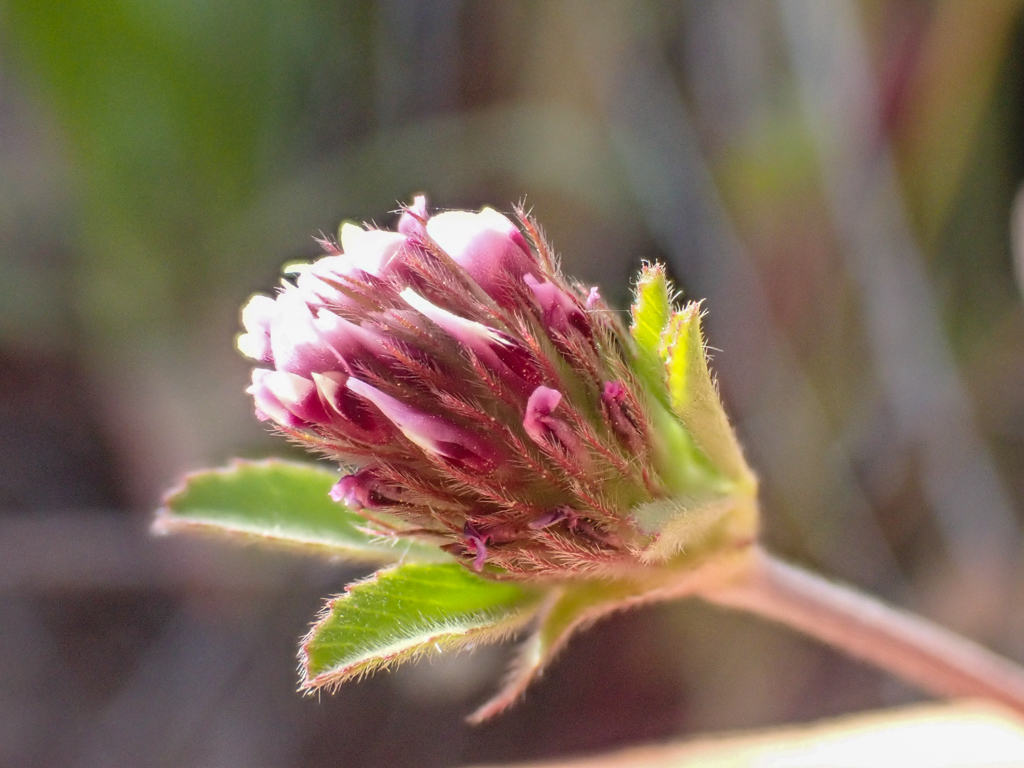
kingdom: Plantae
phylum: Tracheophyta
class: Magnoliopsida
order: Fabales
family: Fabaceae
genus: Trifolium
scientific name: Trifolium macraei
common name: Macrae's clover
